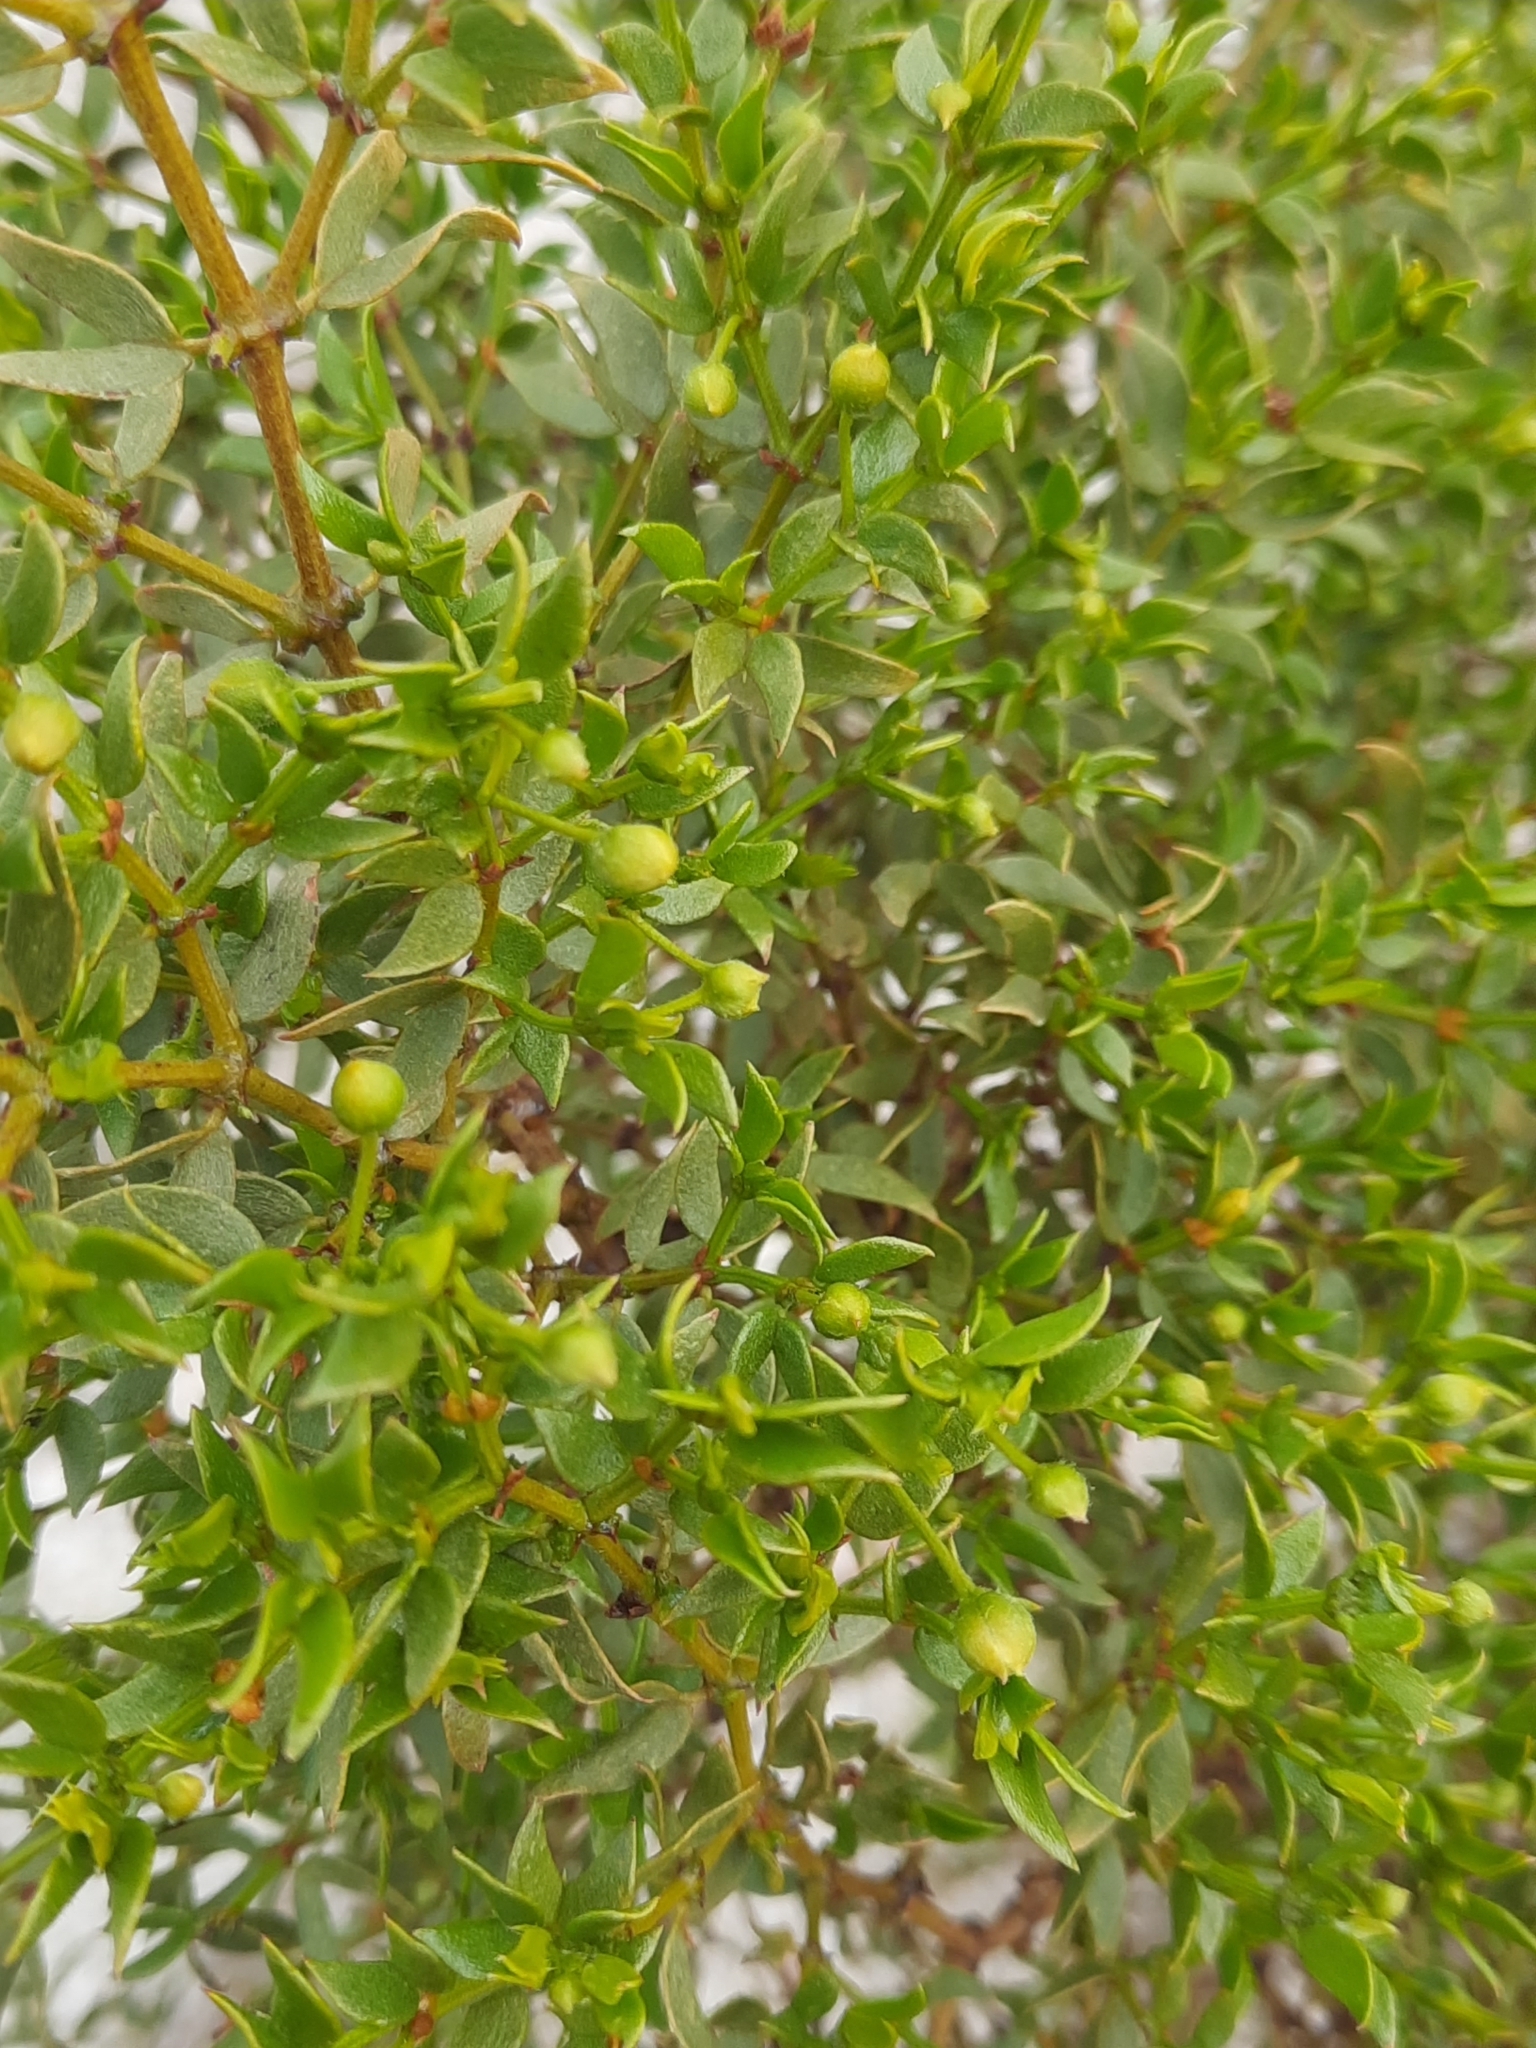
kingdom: Plantae
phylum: Tracheophyta
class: Magnoliopsida
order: Zygophyllales
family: Zygophyllaceae
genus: Larrea
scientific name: Larrea tridentata
